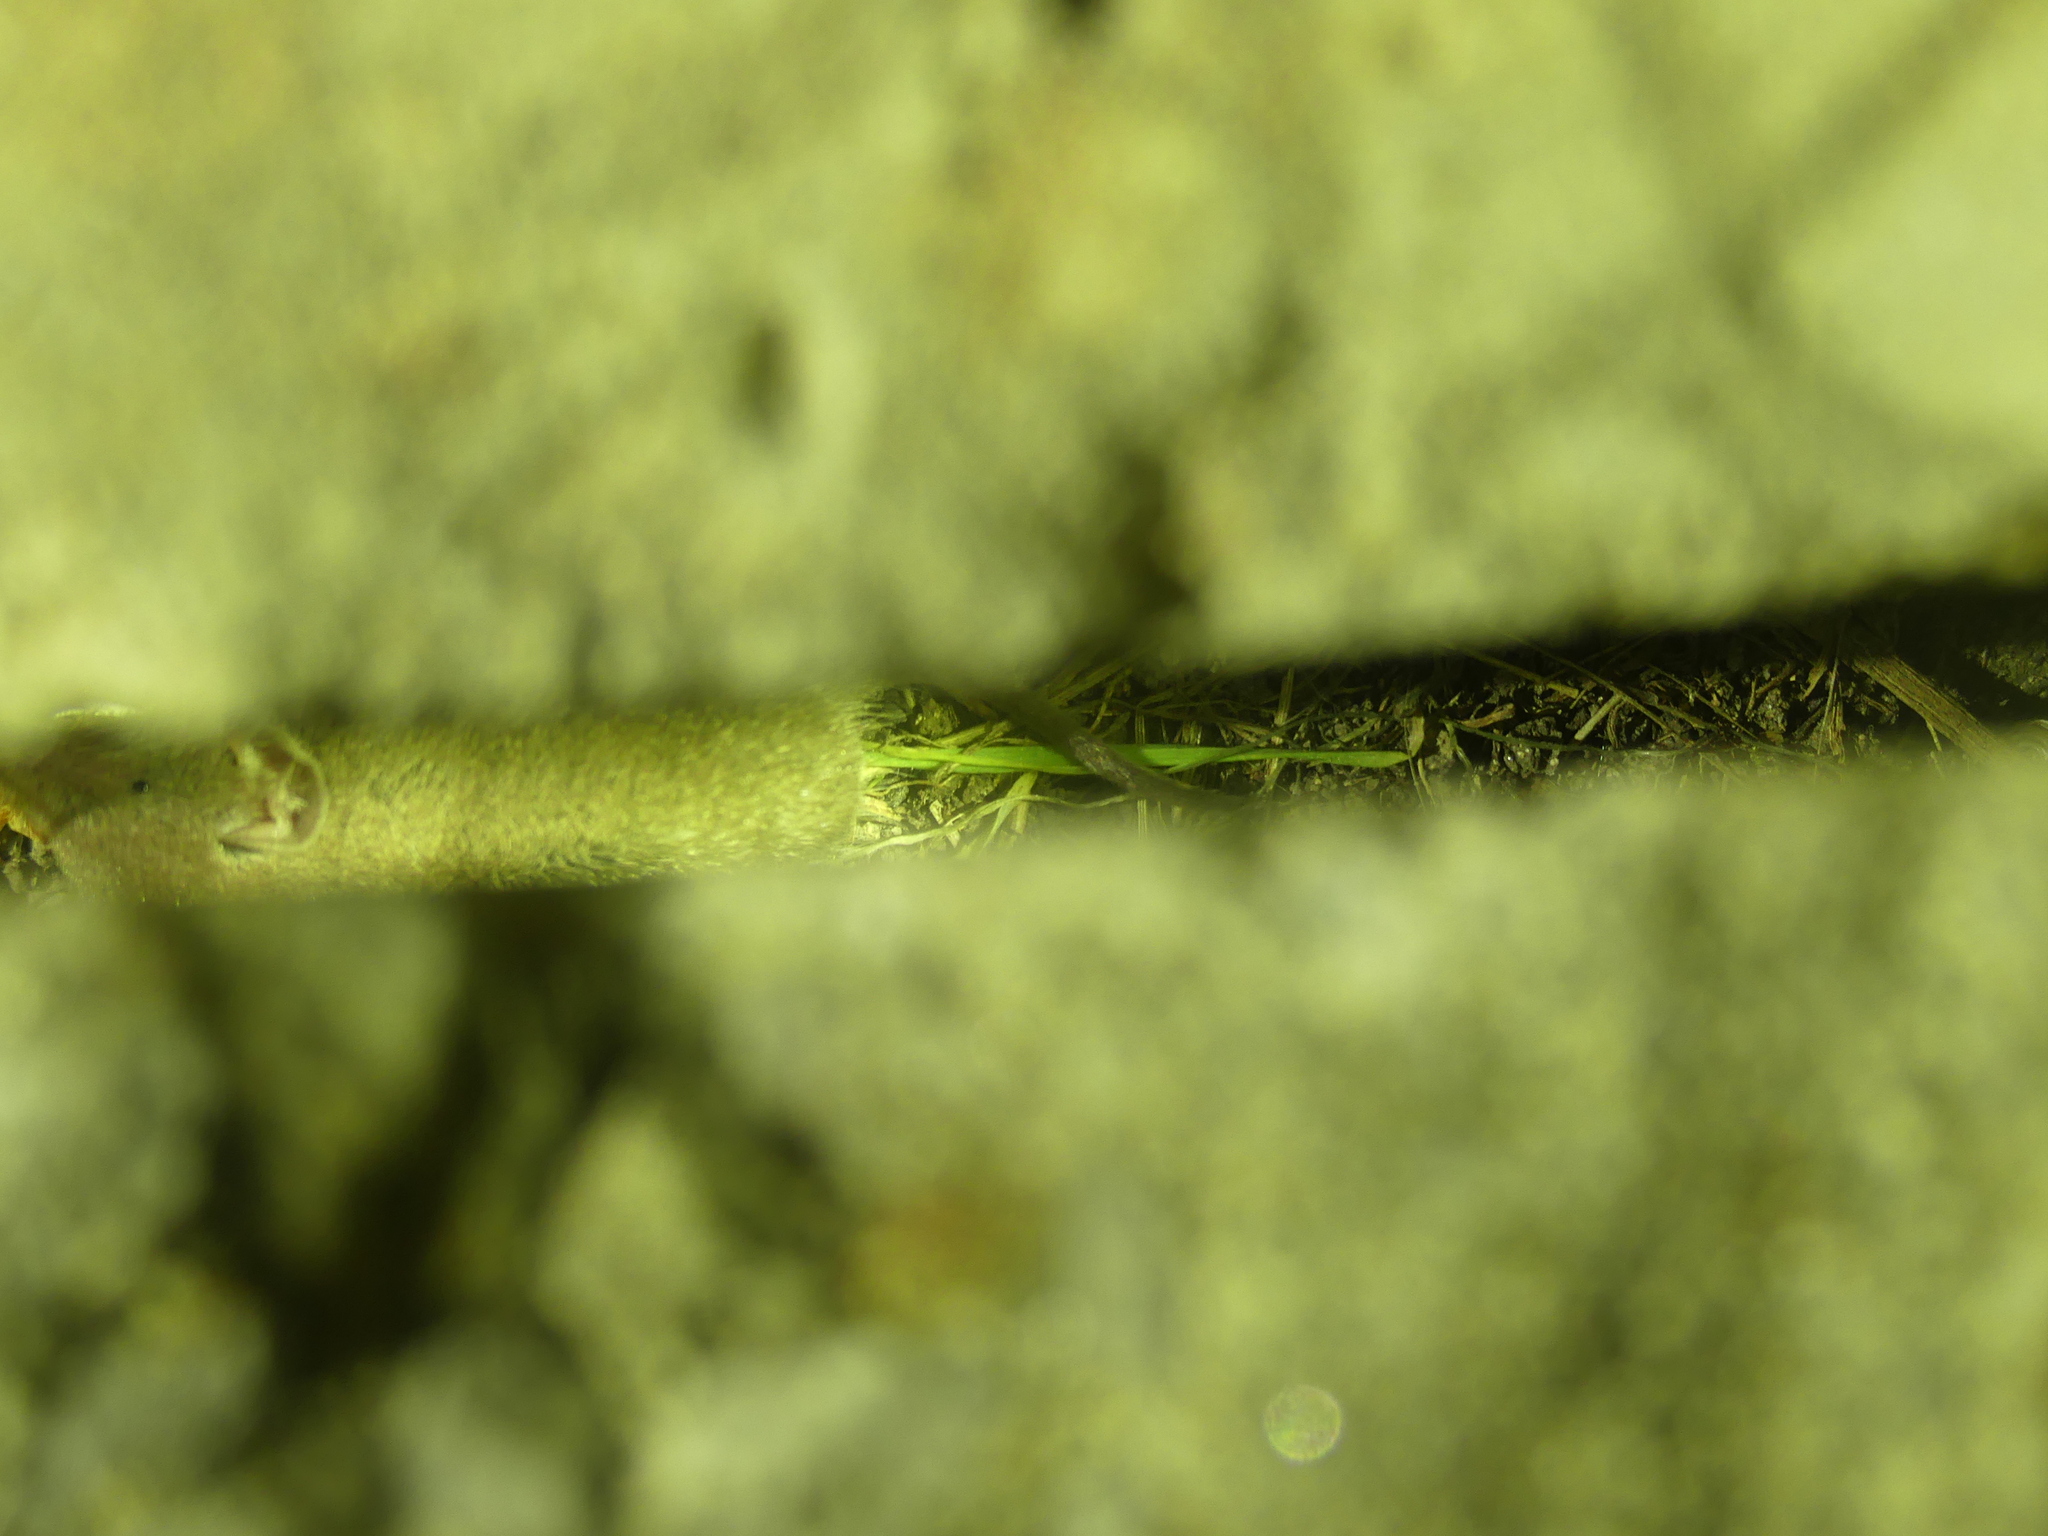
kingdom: Animalia
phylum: Chordata
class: Mammalia
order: Soricomorpha
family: Soricidae
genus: Crocidura
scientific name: Crocidura russula
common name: Greater white-toothed shrew
